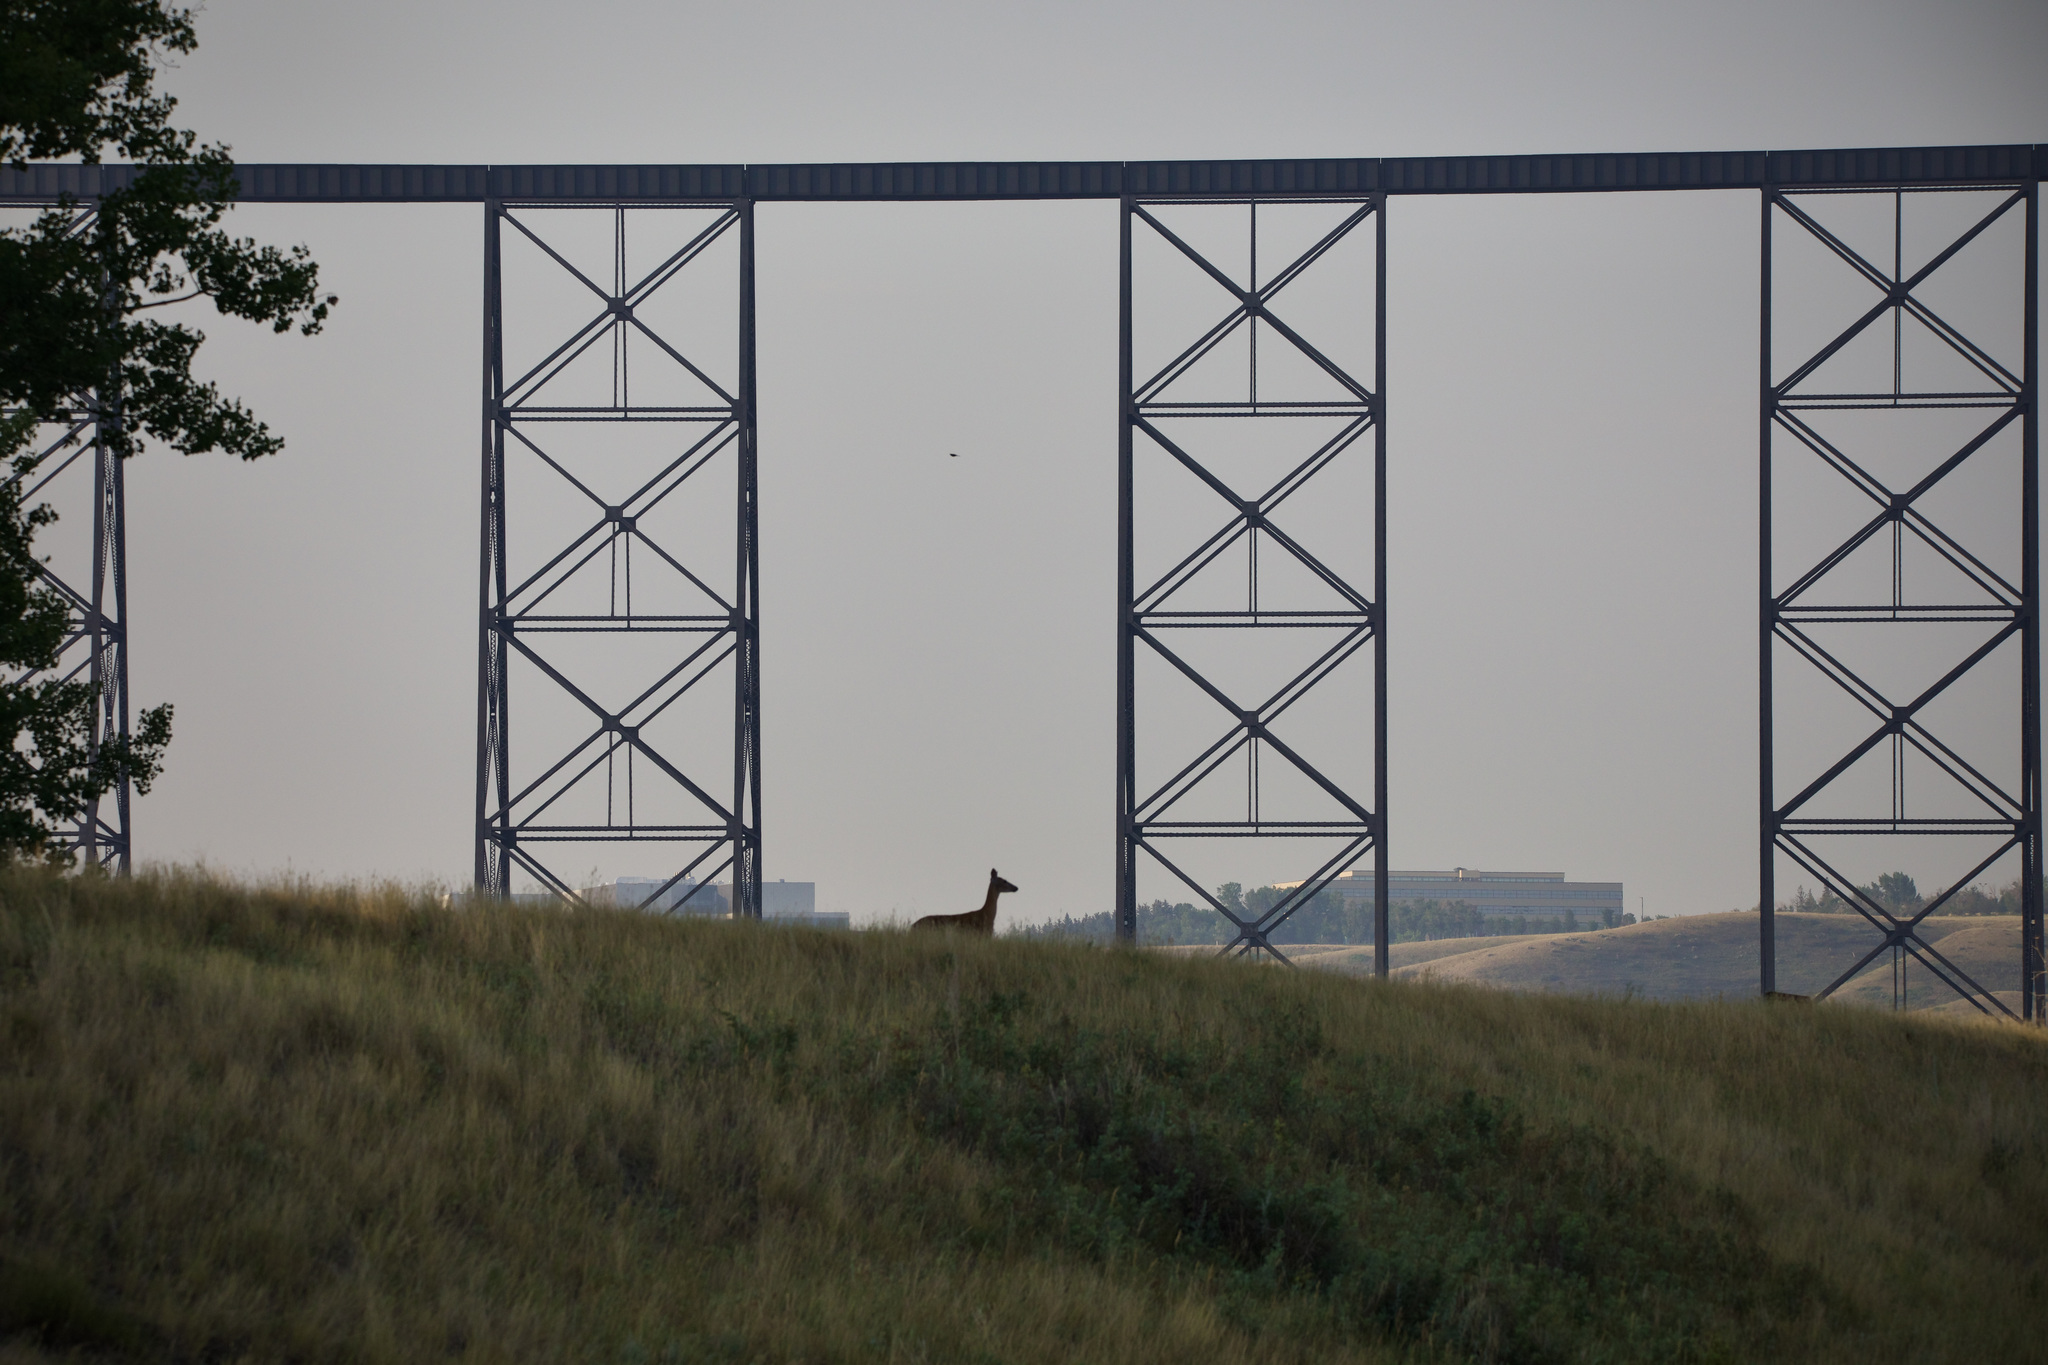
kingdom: Animalia
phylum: Chordata
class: Mammalia
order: Artiodactyla
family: Cervidae
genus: Odocoileus
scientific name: Odocoileus virginianus
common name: White-tailed deer
